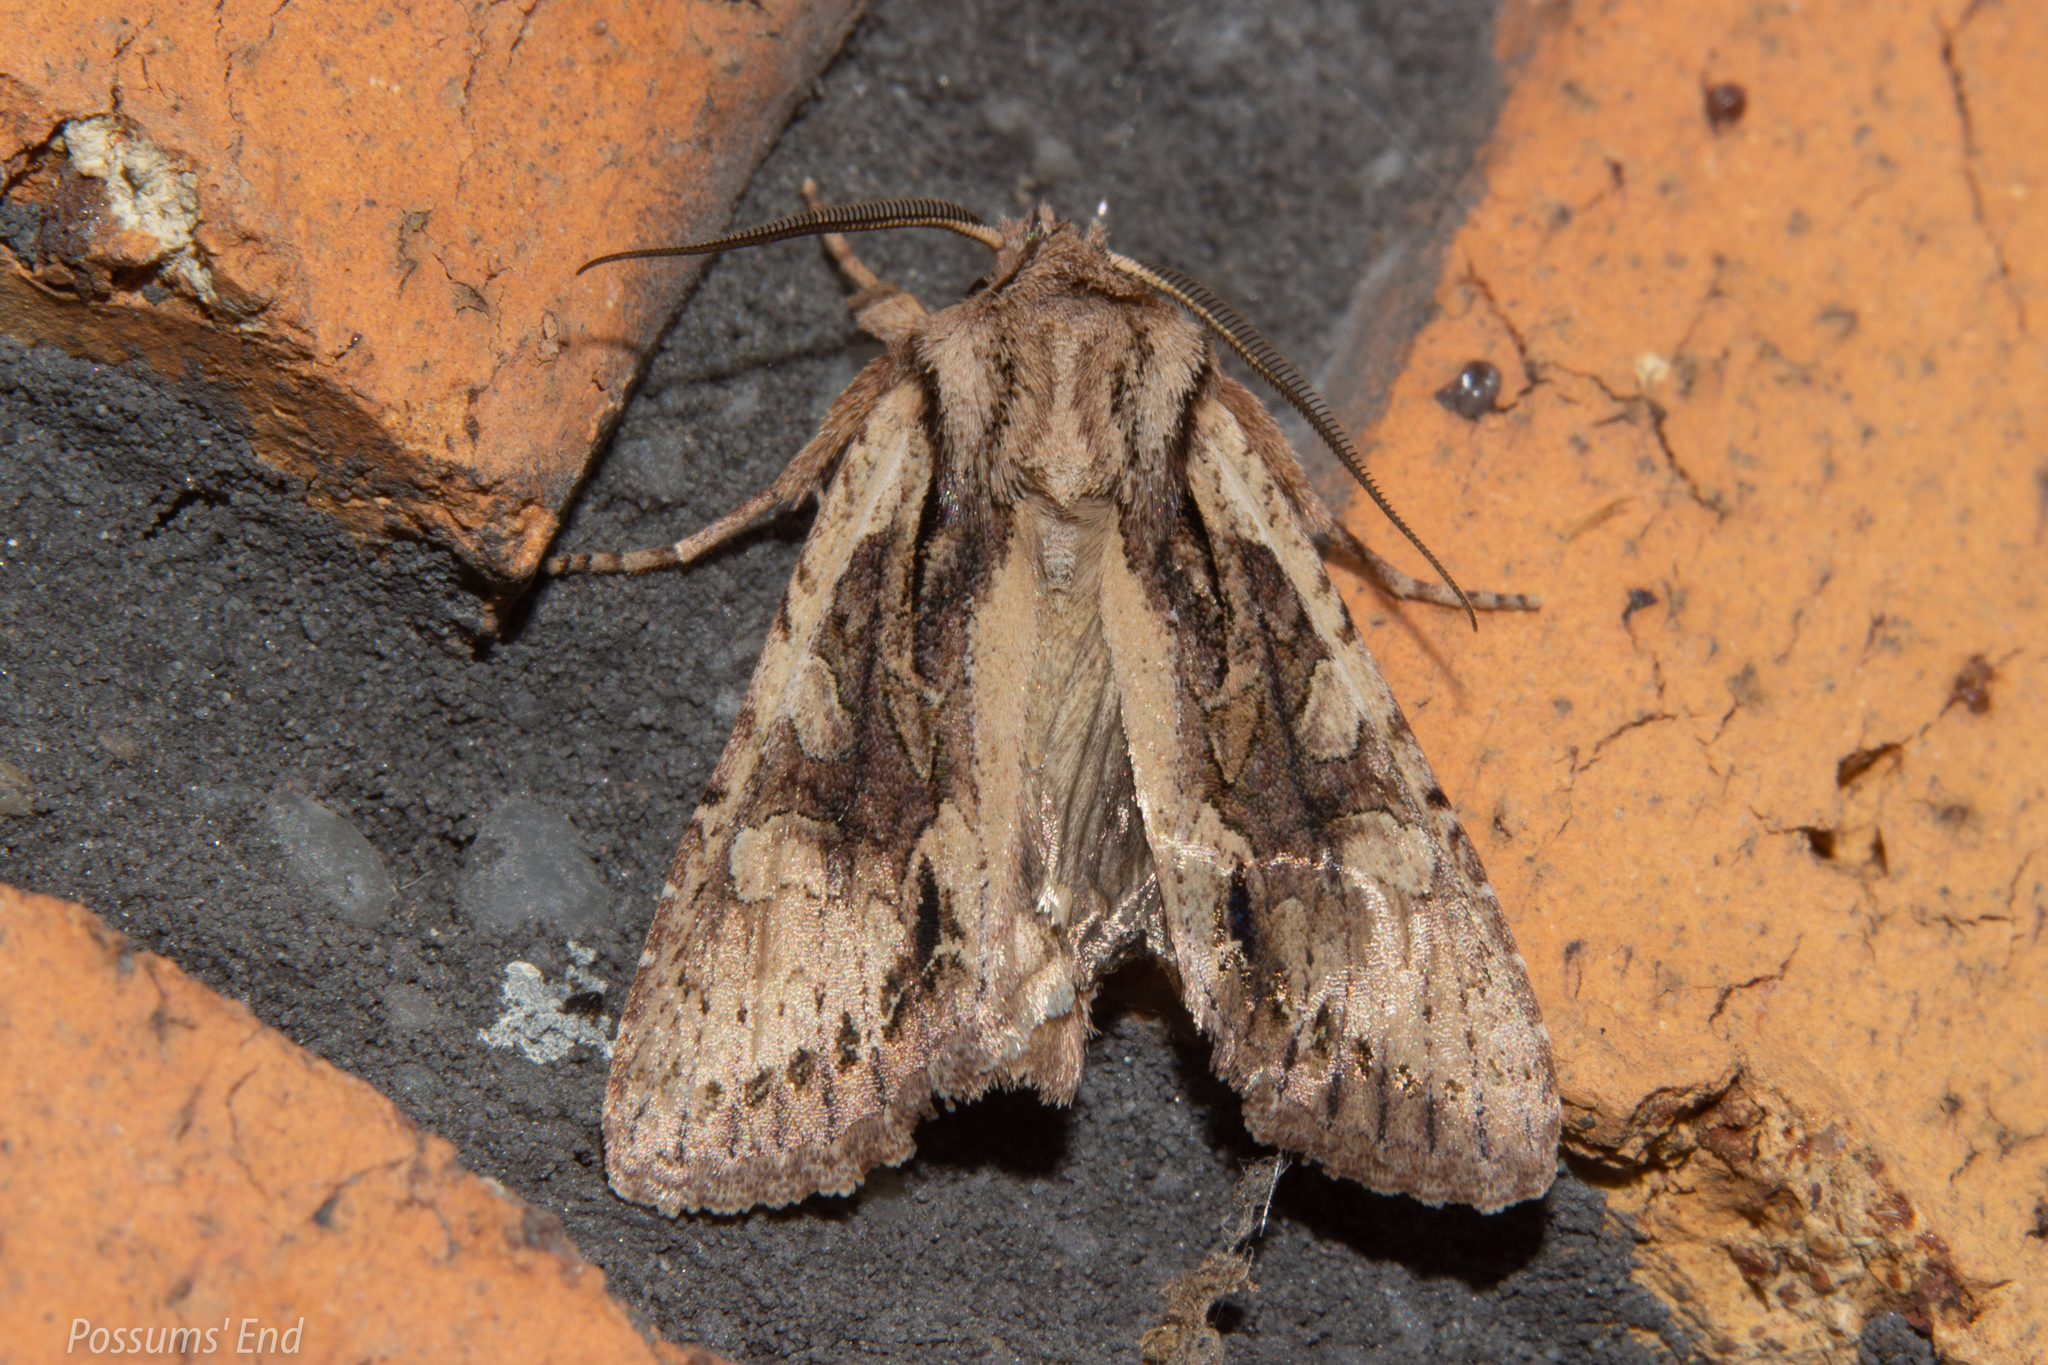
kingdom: Animalia
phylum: Arthropoda
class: Insecta
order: Lepidoptera
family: Noctuidae
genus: Ichneutica
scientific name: Ichneutica
